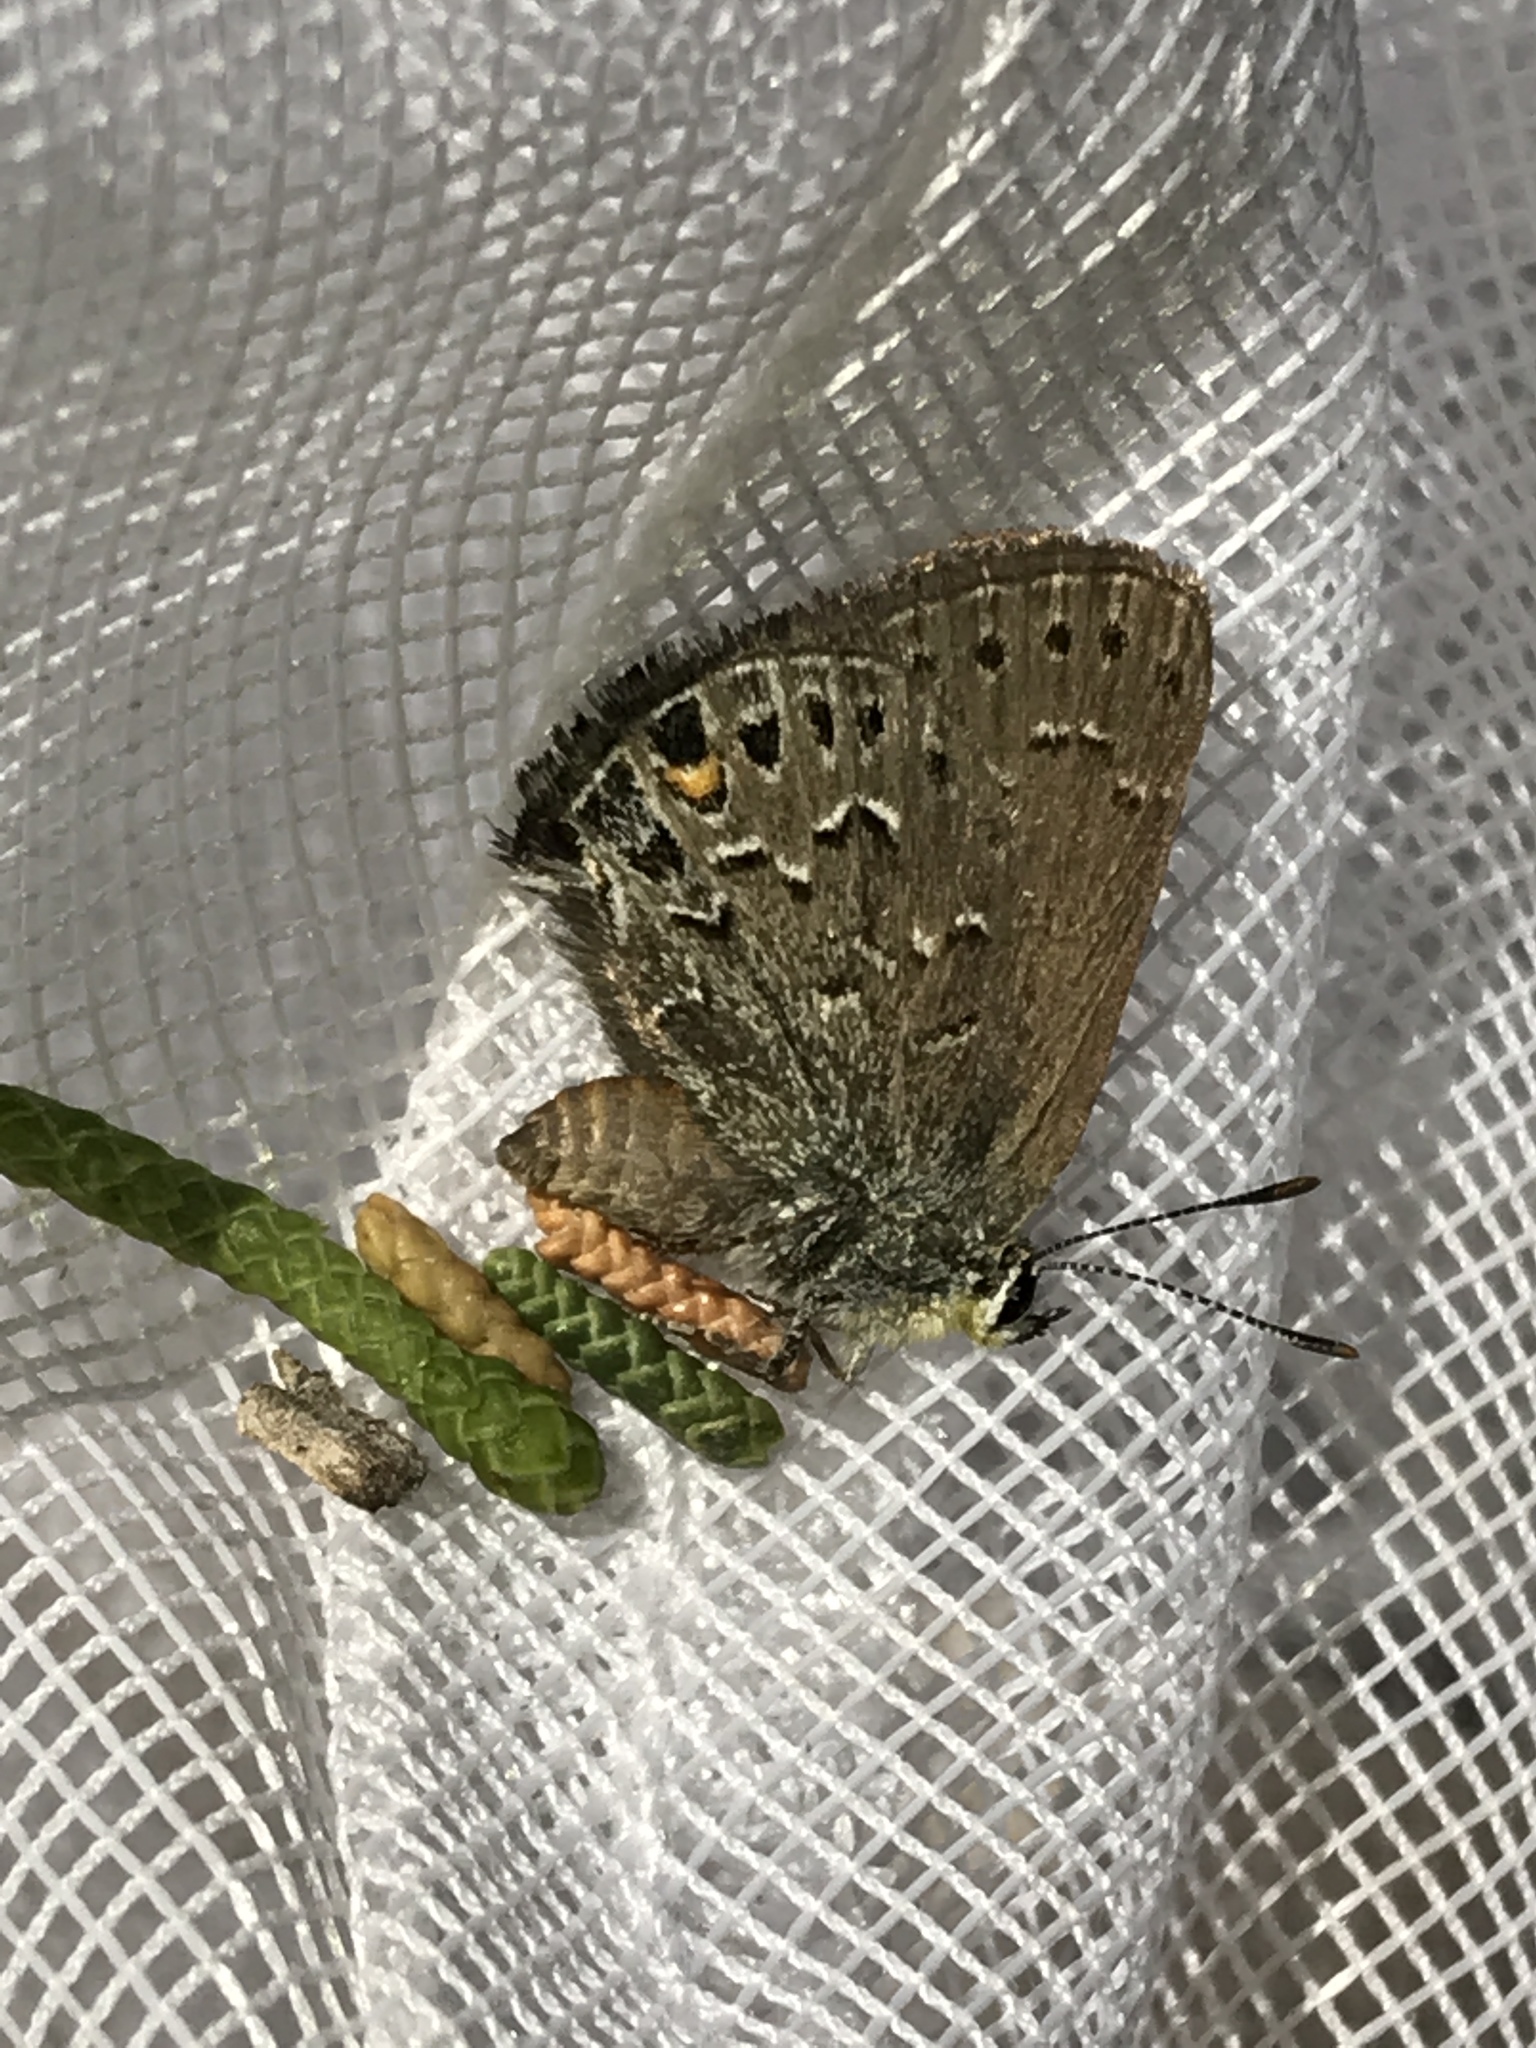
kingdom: Animalia
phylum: Arthropoda
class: Insecta
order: Lepidoptera
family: Lycaenidae
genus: Satyrium
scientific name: Satyrium behrii
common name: Behr's hairstreak
